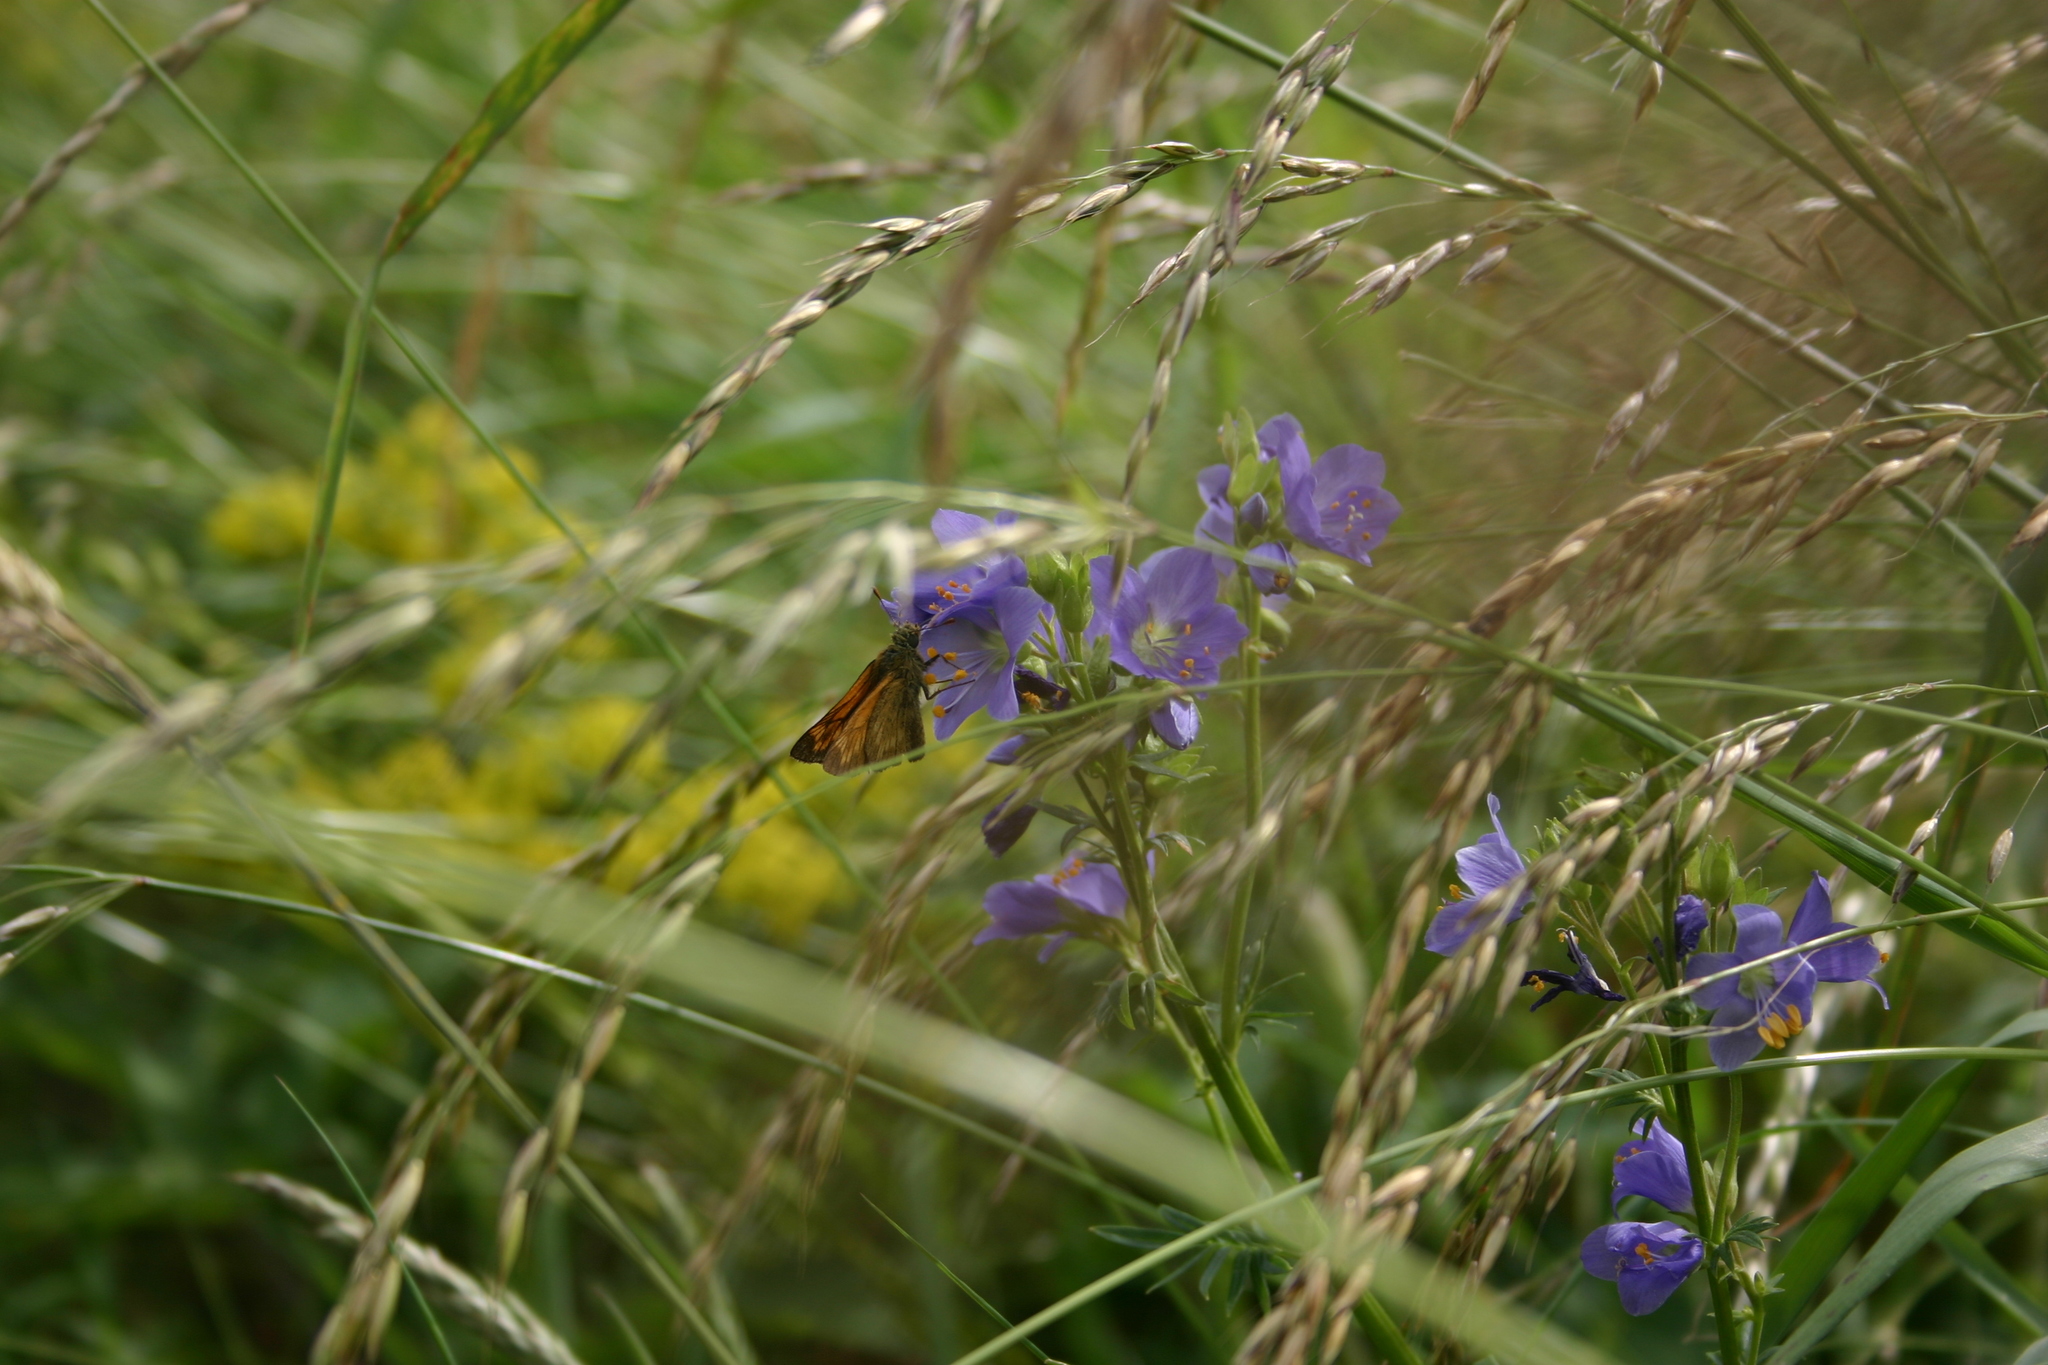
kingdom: Plantae
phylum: Tracheophyta
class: Magnoliopsida
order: Ericales
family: Polemoniaceae
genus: Polemonium
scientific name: Polemonium caeruleum
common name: Jacob's-ladder
